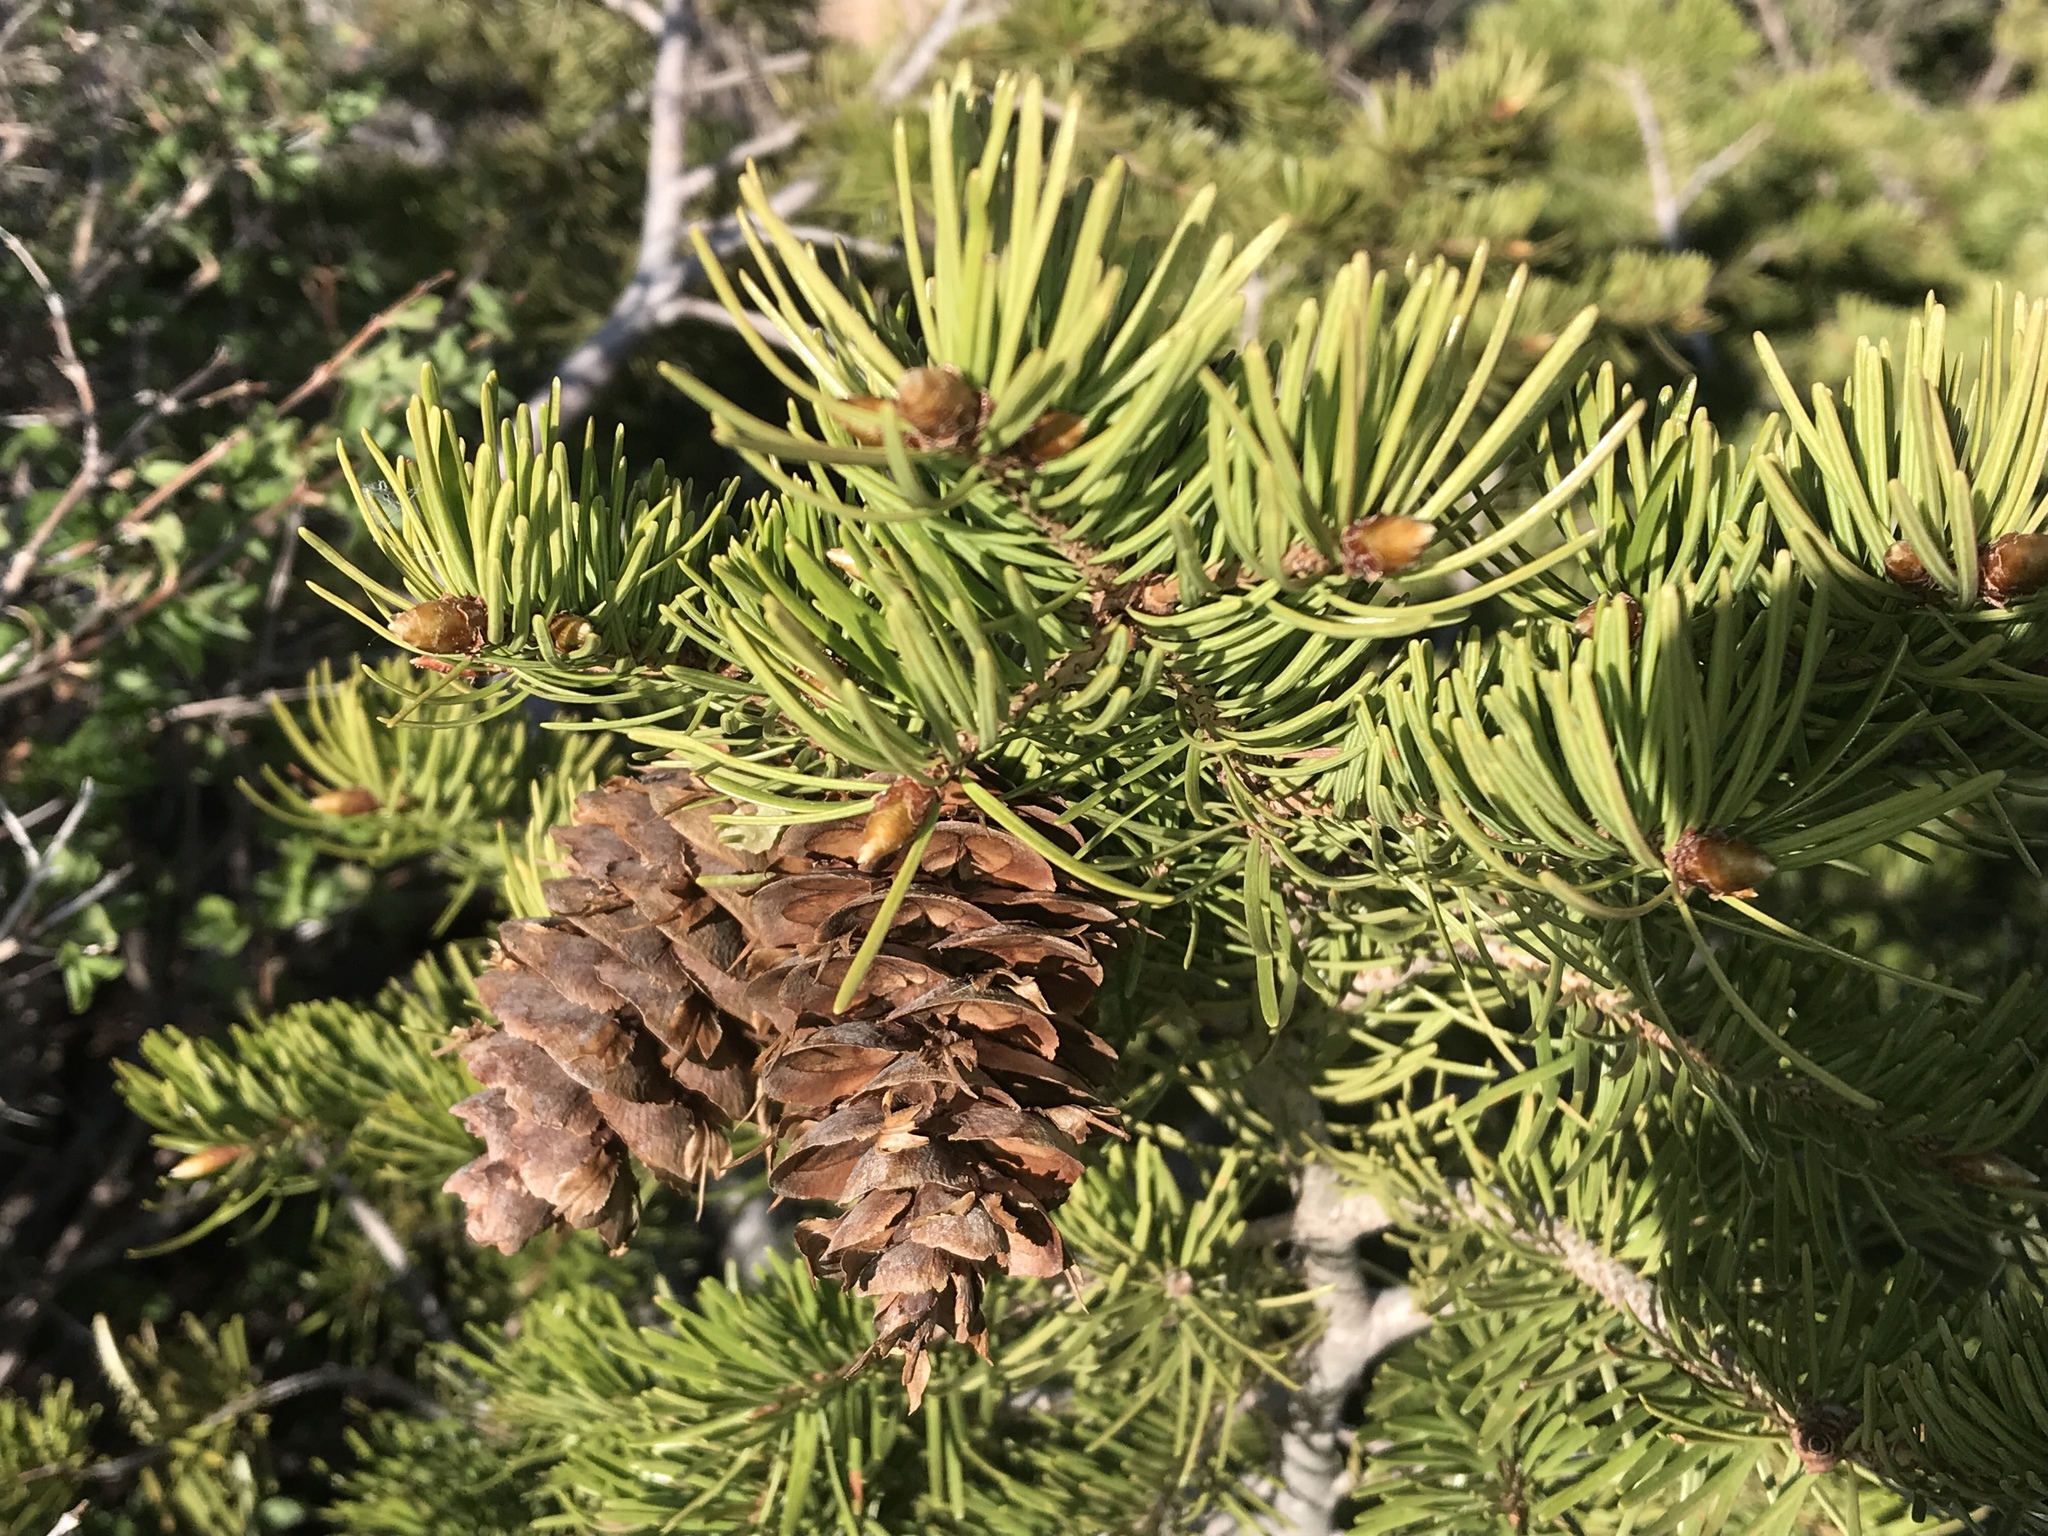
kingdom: Plantae
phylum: Tracheophyta
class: Pinopsida
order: Pinales
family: Pinaceae
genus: Pseudotsuga
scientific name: Pseudotsuga menziesii
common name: Douglas fir
